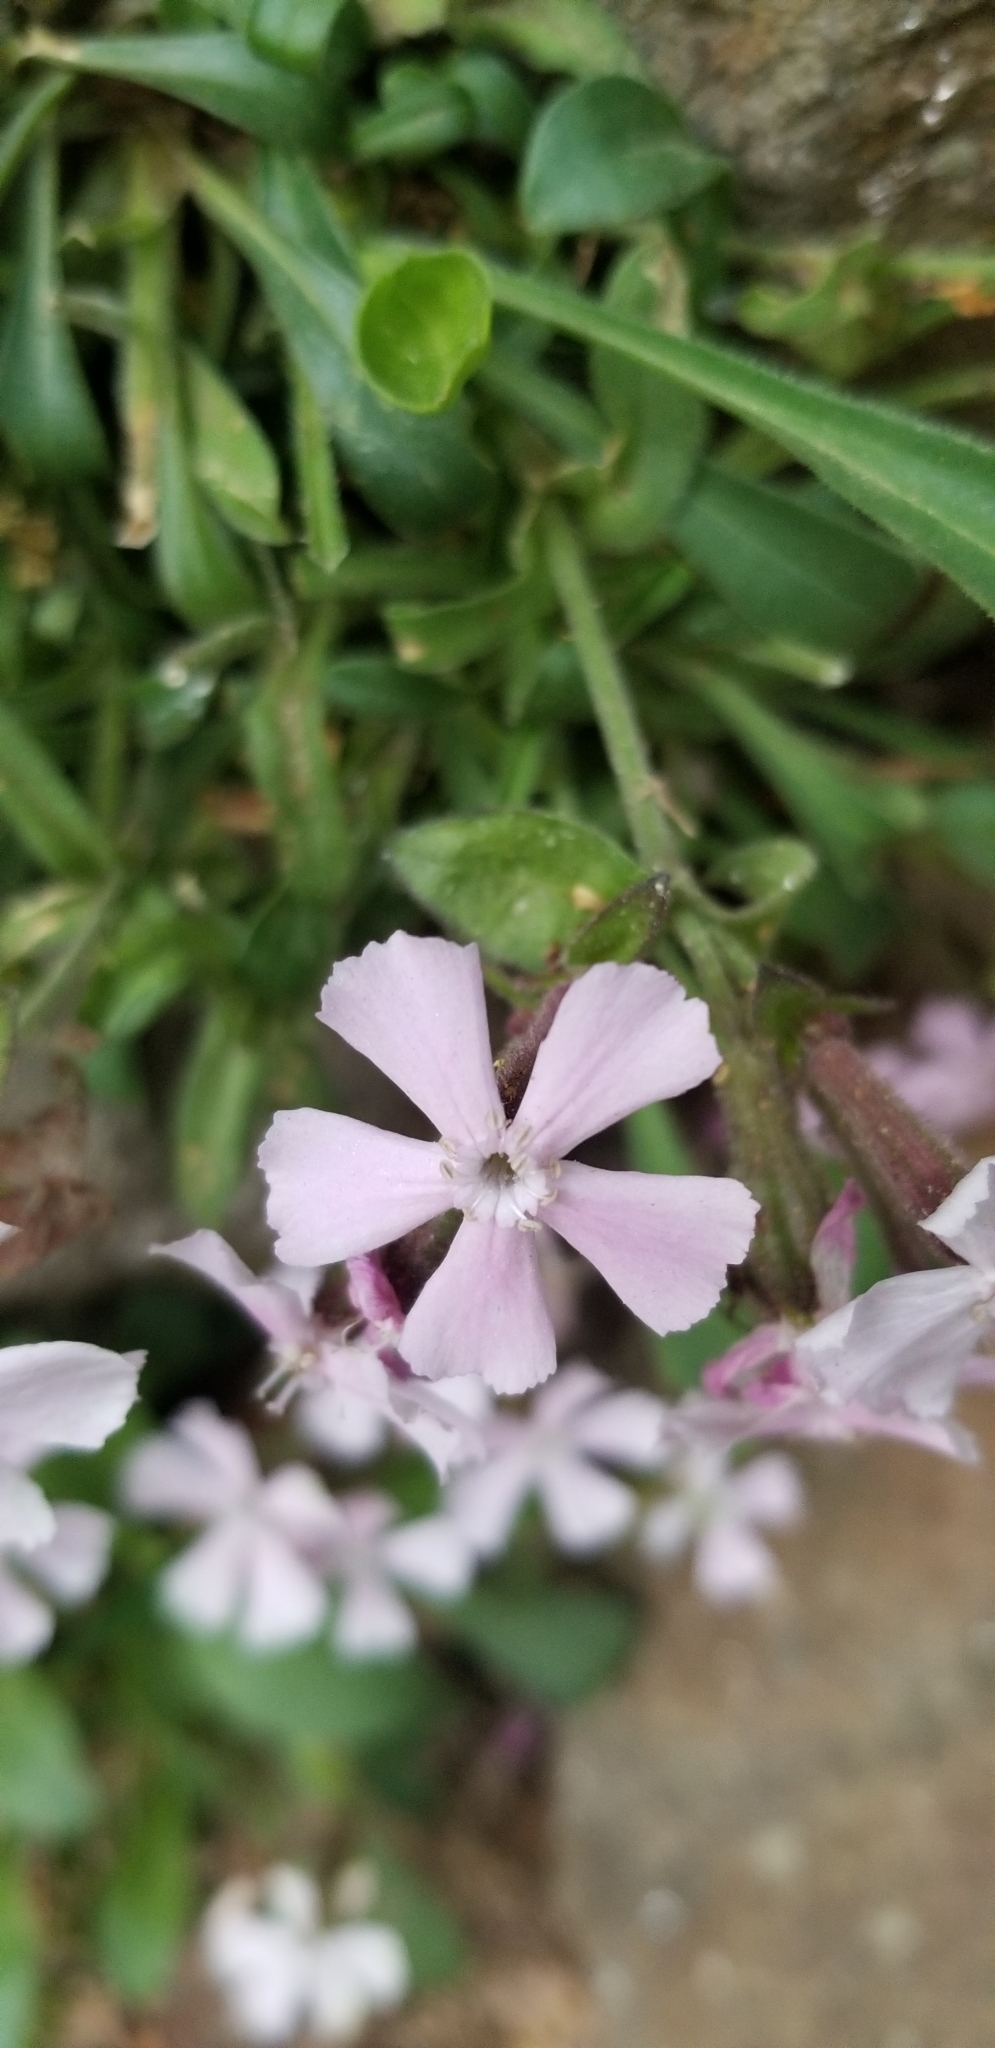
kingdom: Plantae
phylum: Tracheophyta
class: Magnoliopsida
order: Caryophyllales
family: Caryophyllaceae
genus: Silene
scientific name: Silene caroliniana
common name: Sticky catchfly
